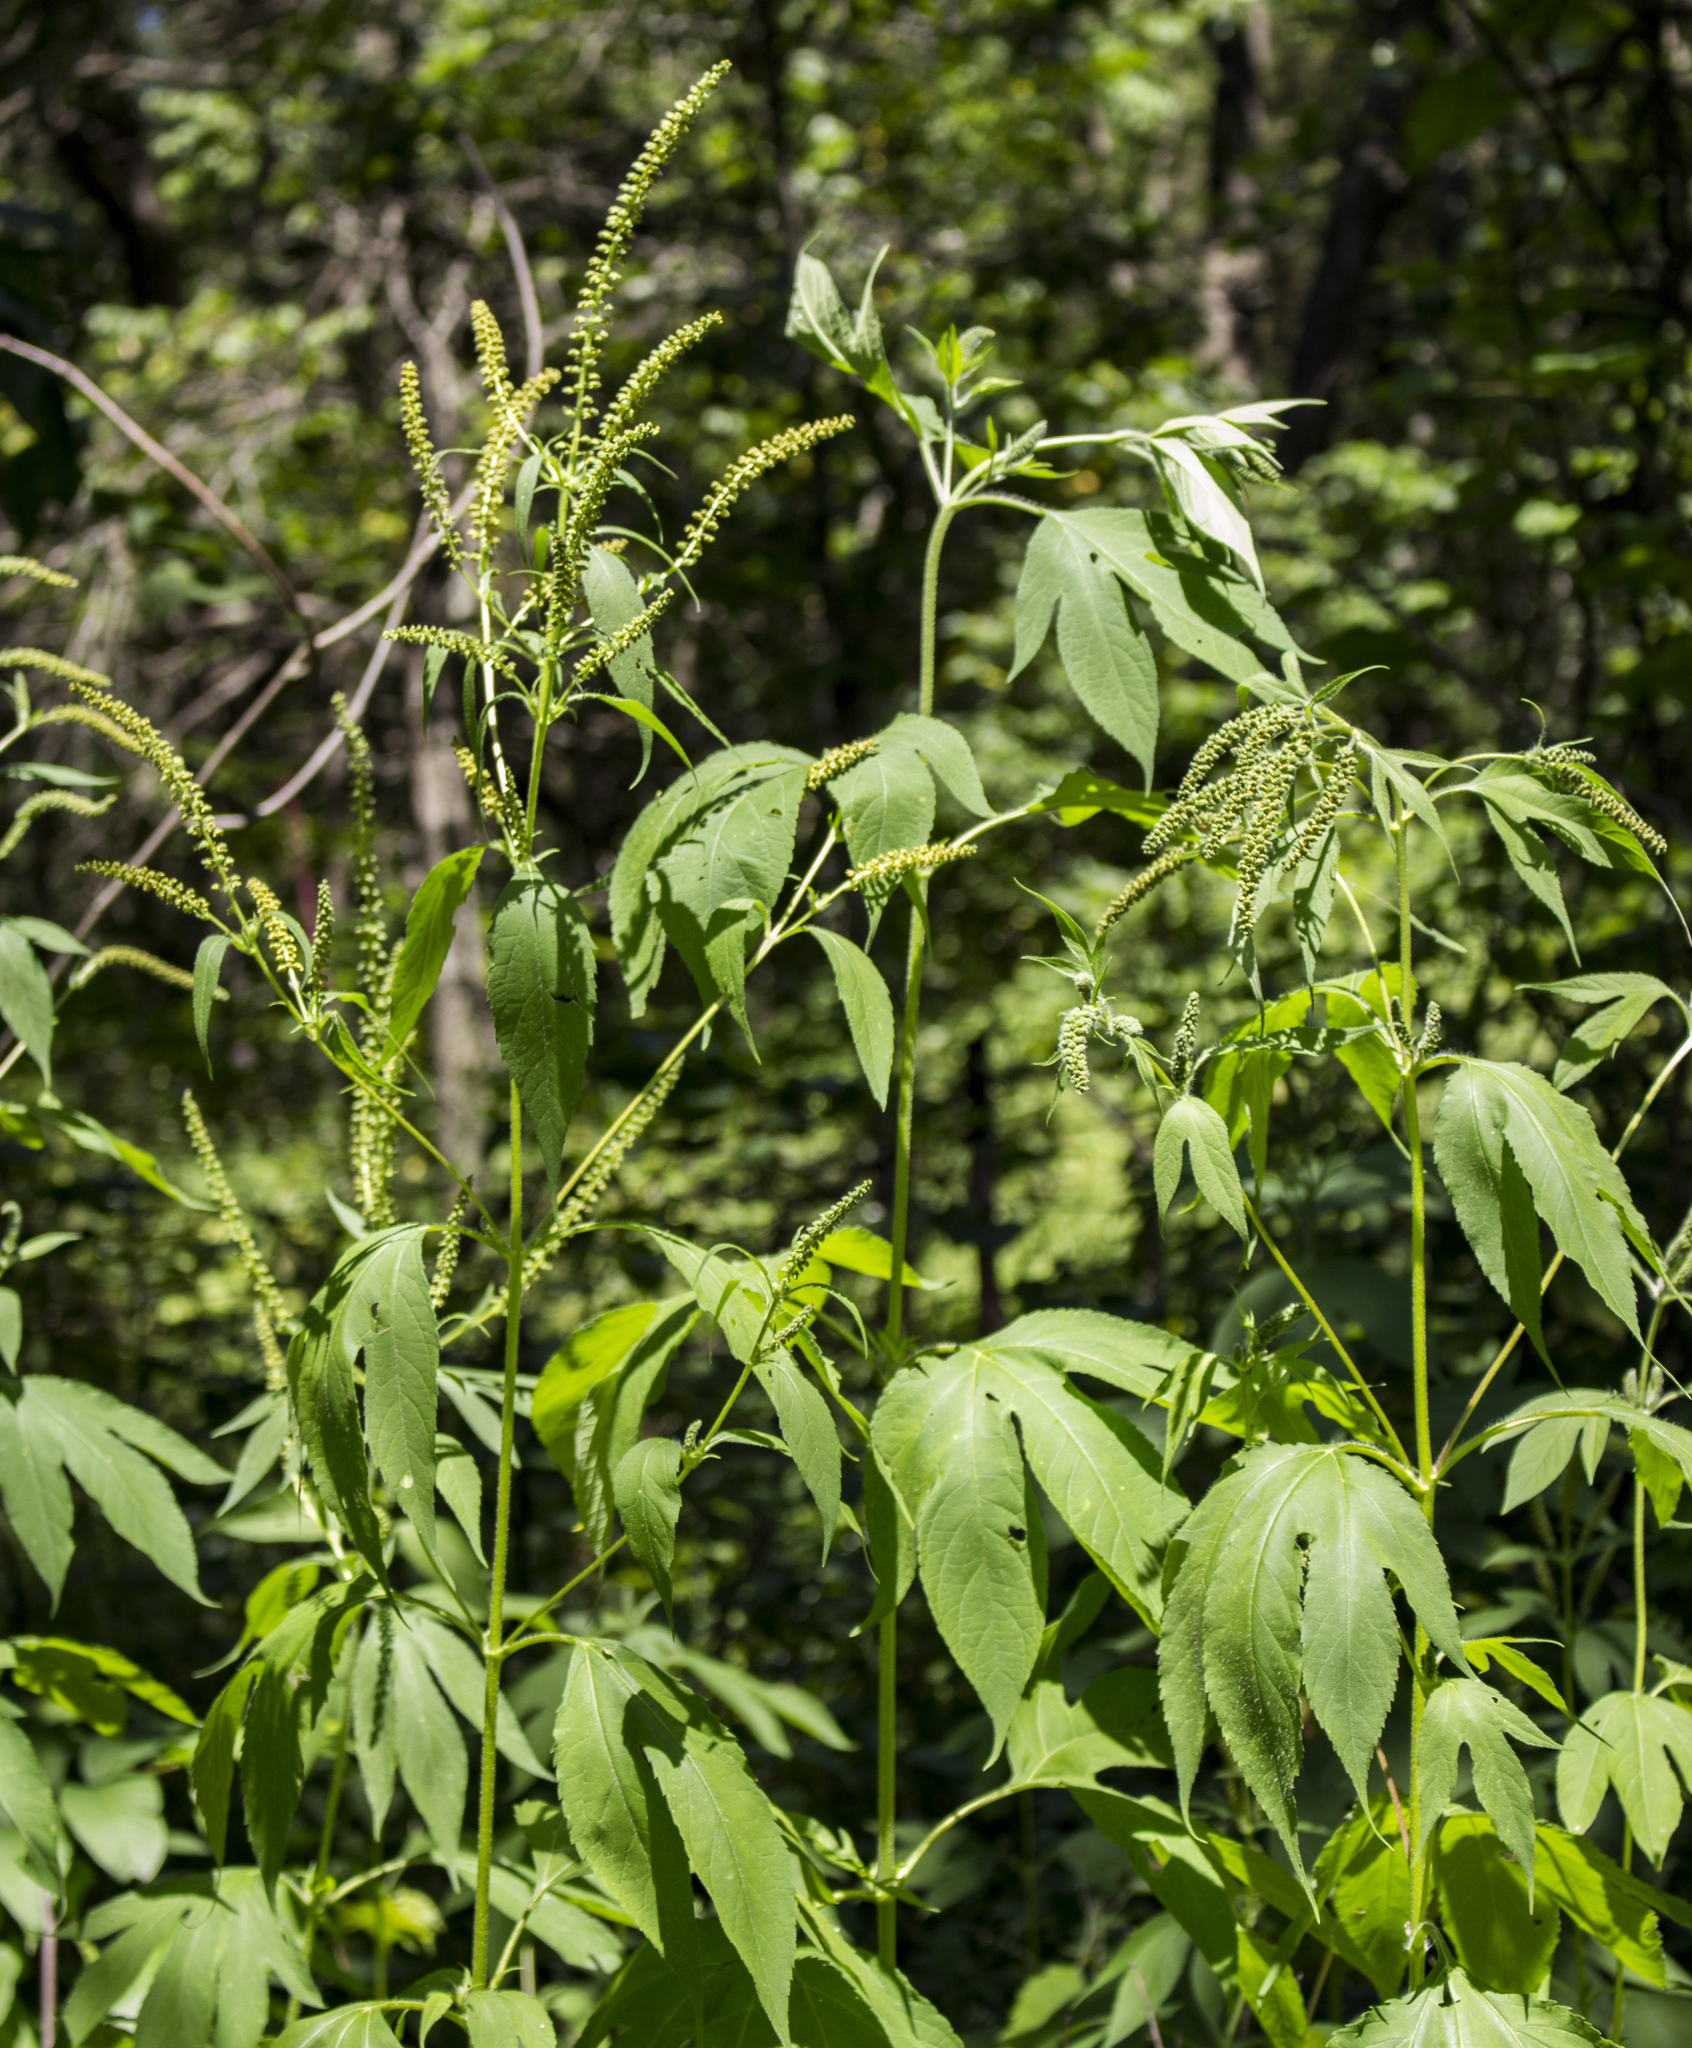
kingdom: Plantae
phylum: Tracheophyta
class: Magnoliopsida
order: Asterales
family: Asteraceae
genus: Ambrosia
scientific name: Ambrosia trifida
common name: Giant ragweed
